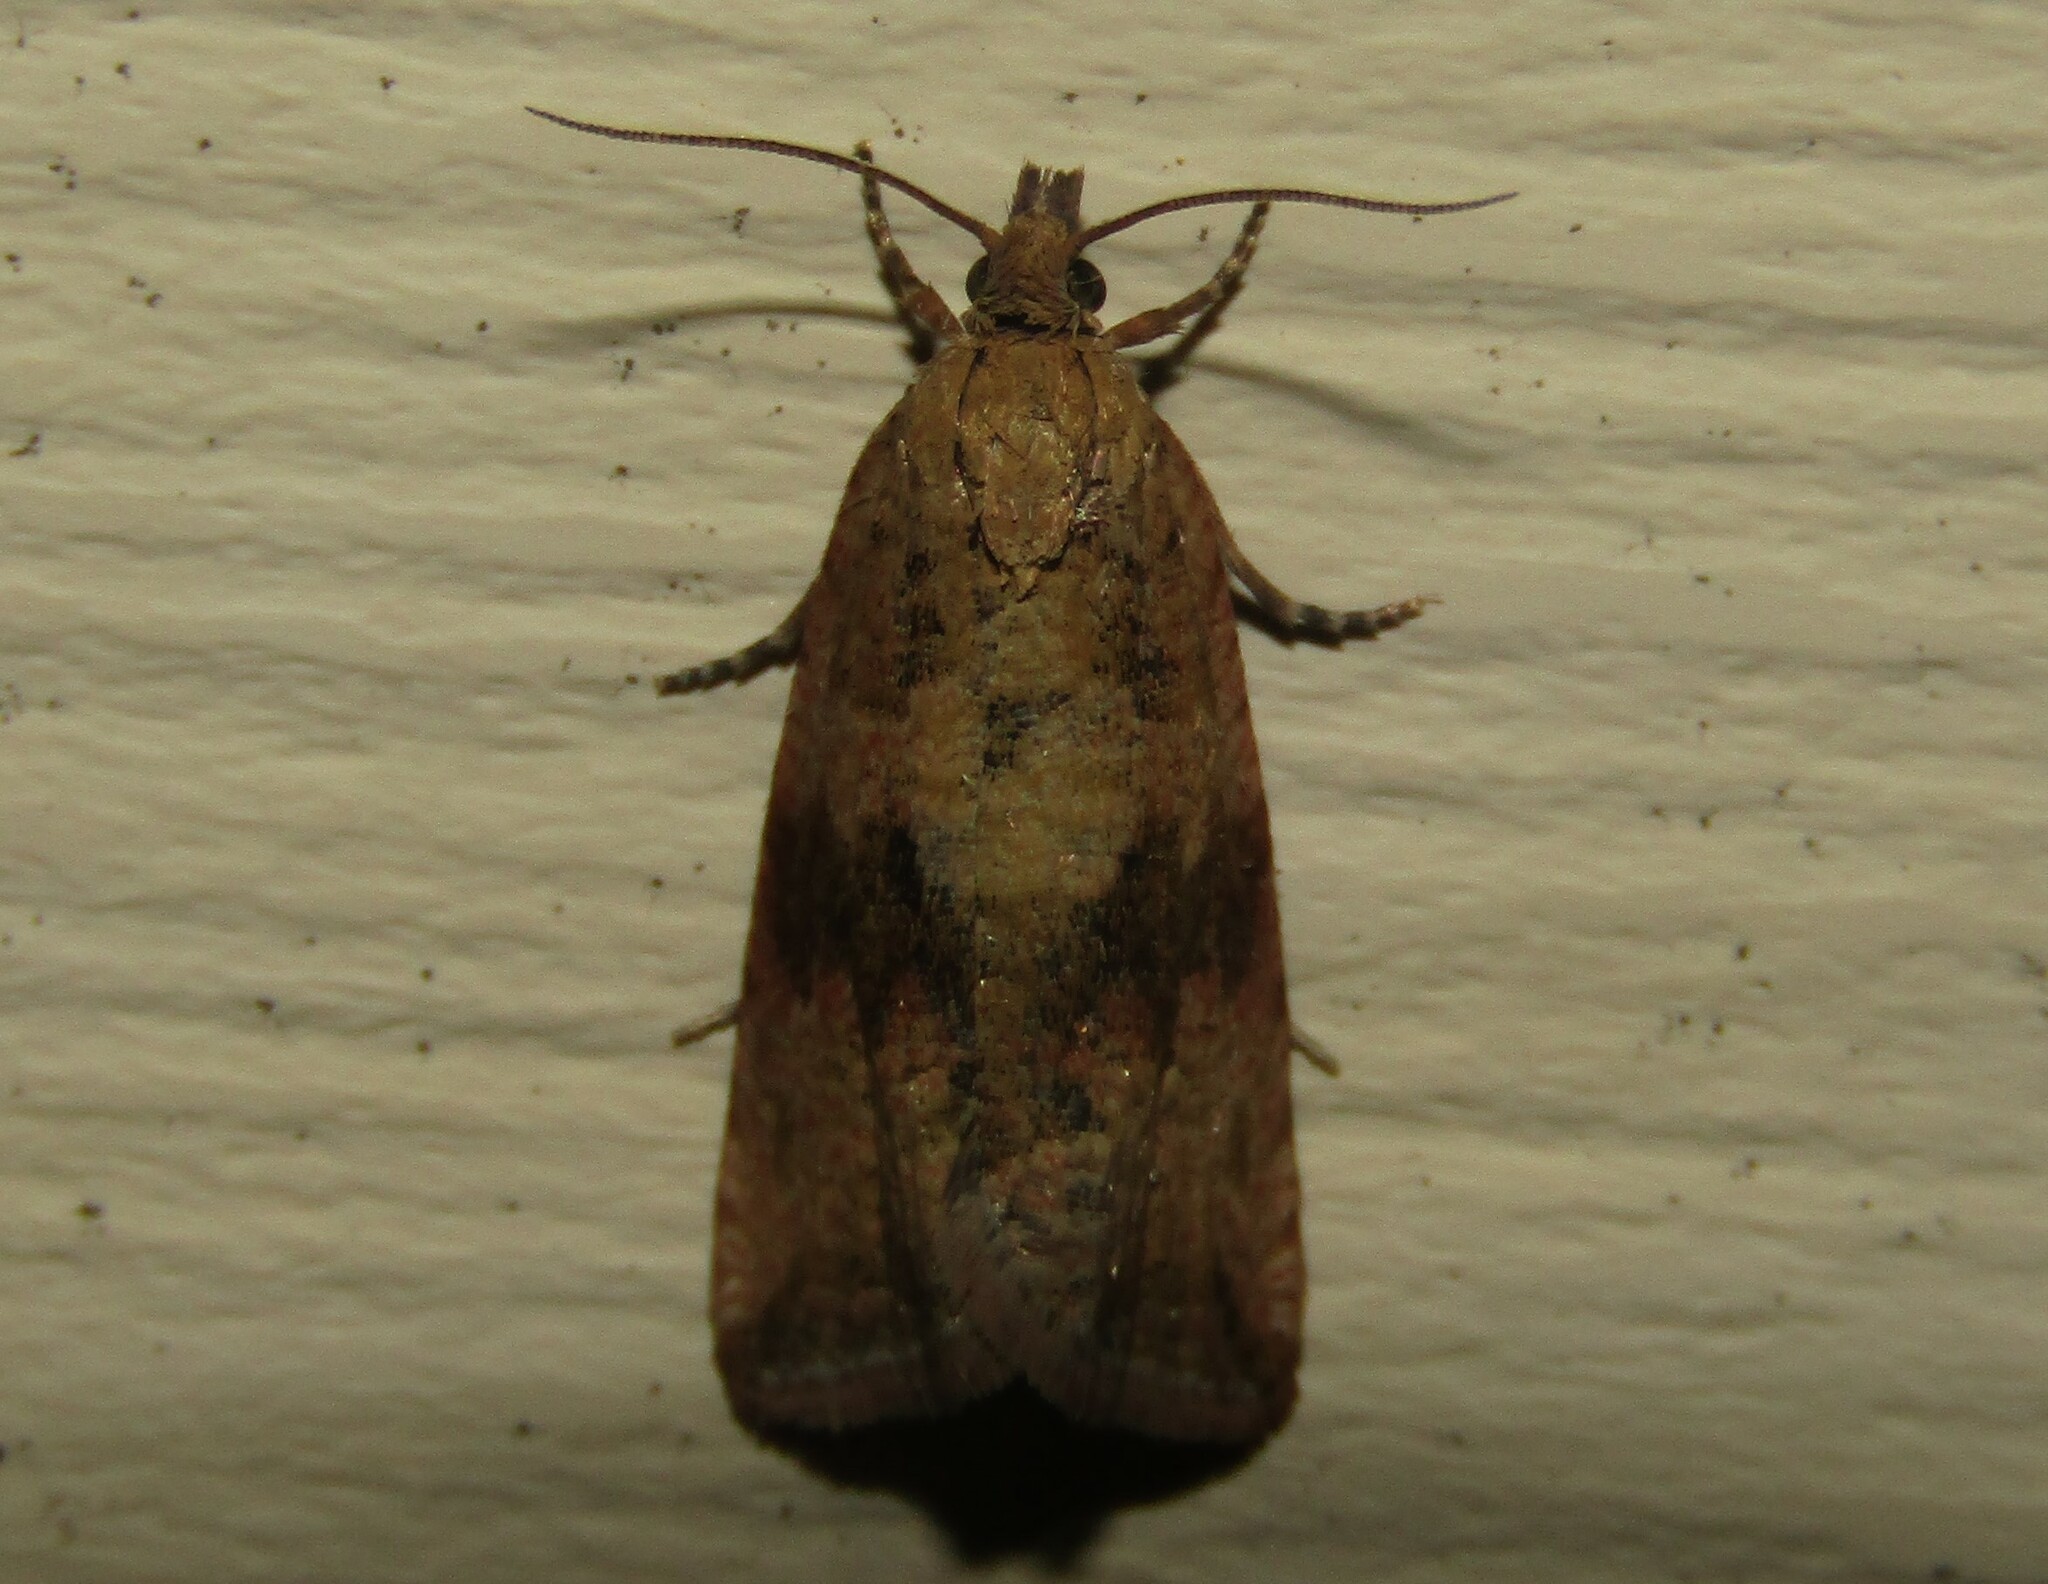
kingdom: Animalia
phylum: Arthropoda
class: Insecta
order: Lepidoptera
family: Tortricidae
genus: Celypha
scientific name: Celypha striana
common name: Barred marble
